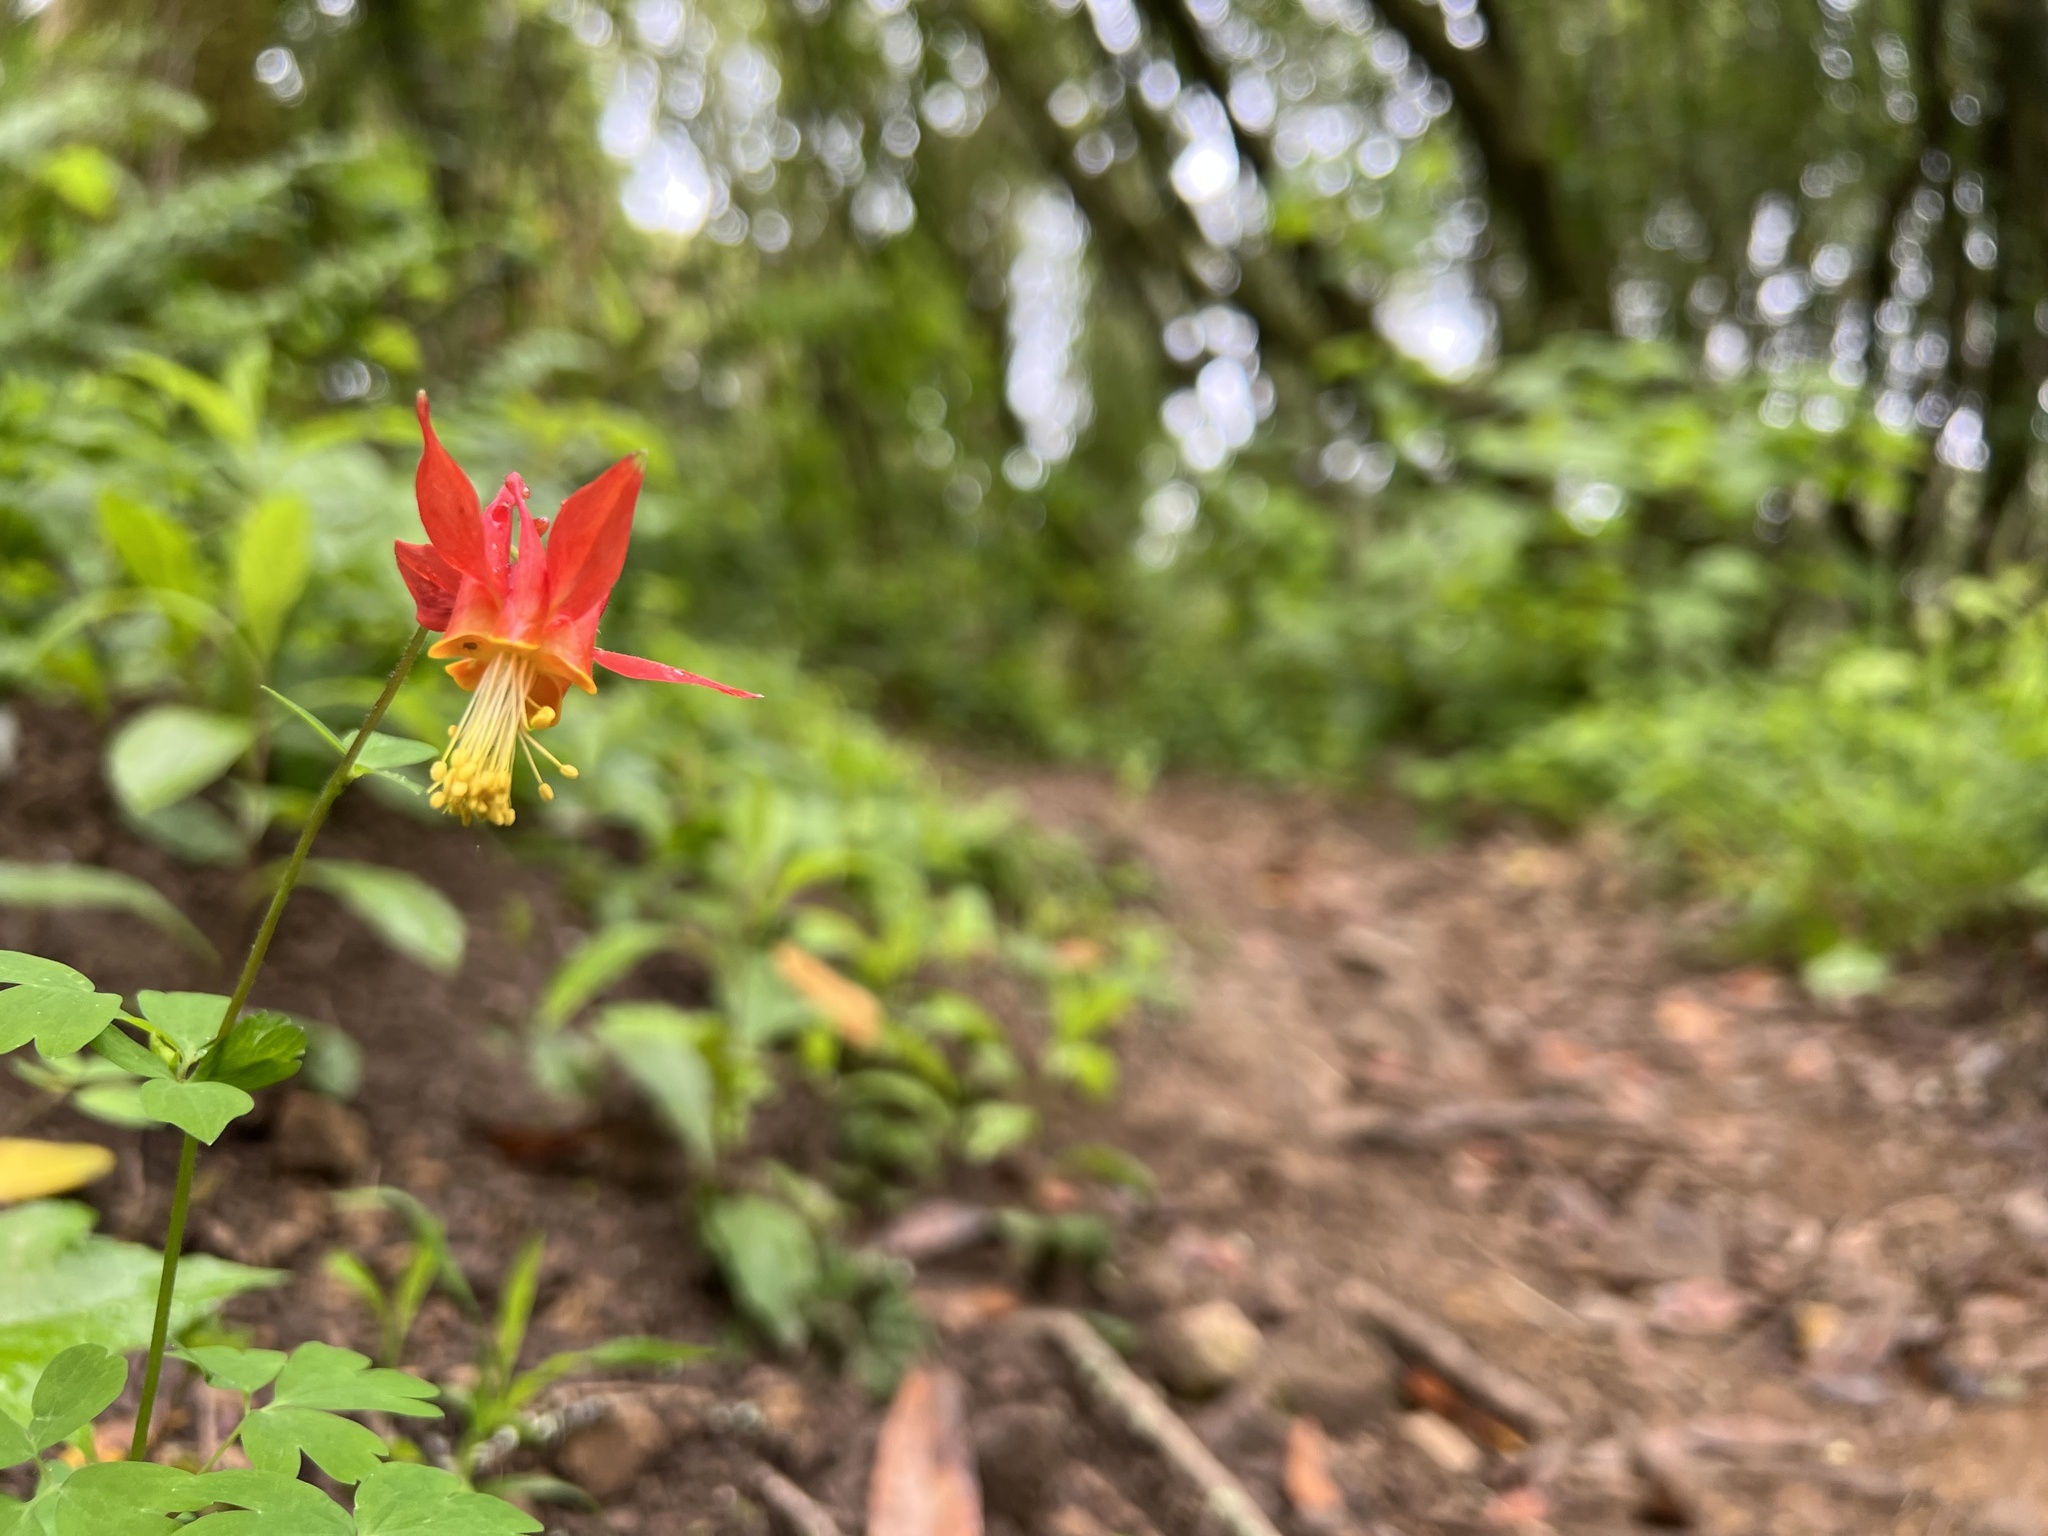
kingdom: Plantae
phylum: Tracheophyta
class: Magnoliopsida
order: Ranunculales
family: Ranunculaceae
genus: Aquilegia
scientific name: Aquilegia formosa
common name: Sitka columbine
